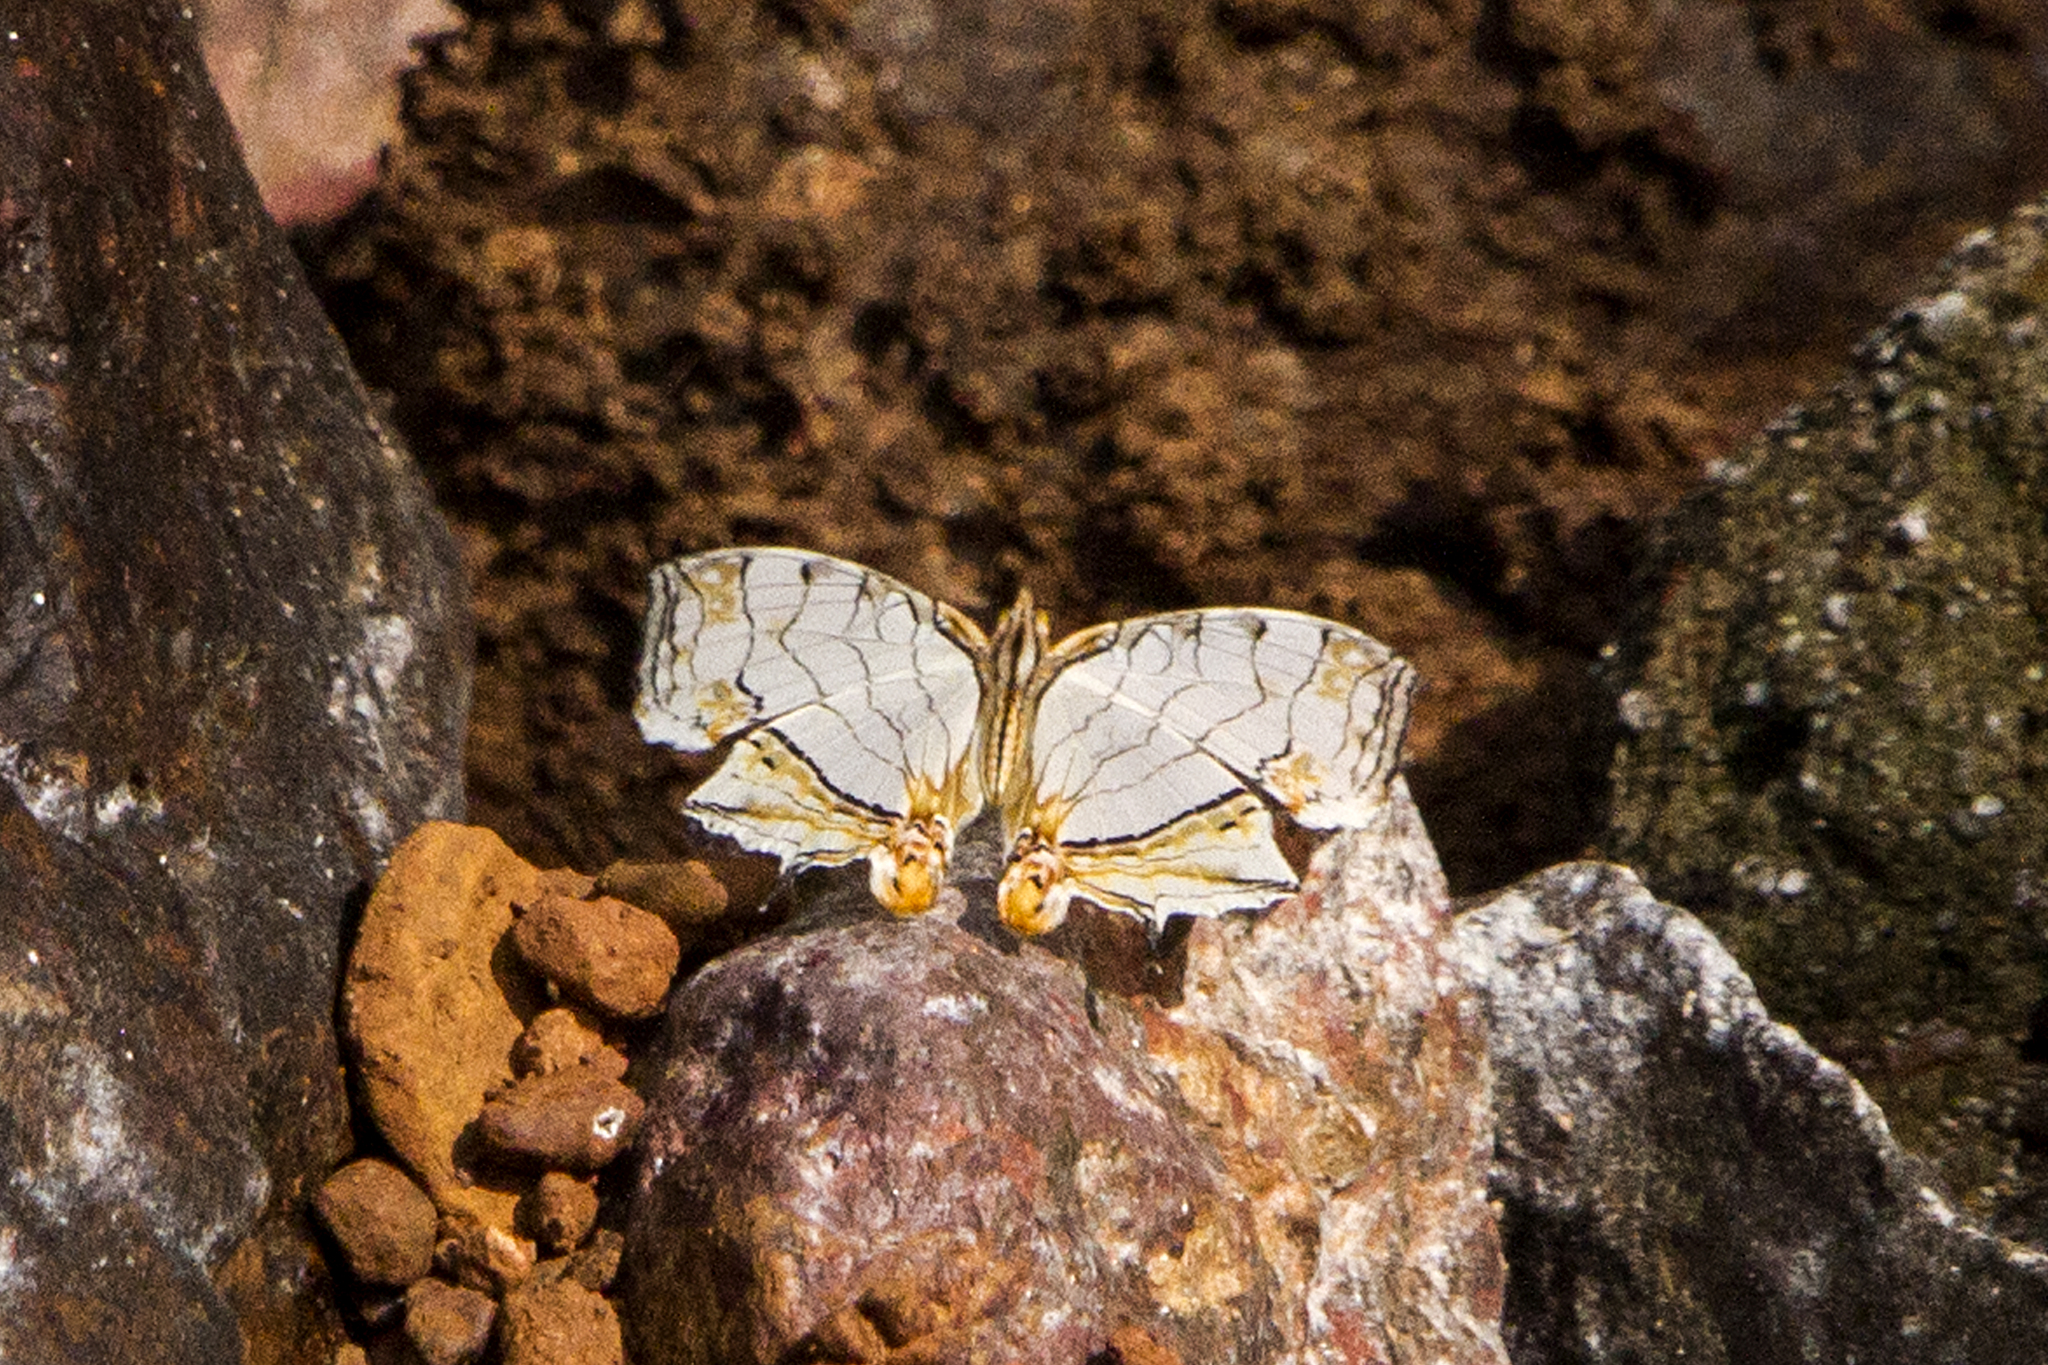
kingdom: Animalia
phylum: Arthropoda
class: Insecta
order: Lepidoptera
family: Nymphalidae
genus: Cyrestis
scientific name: Cyrestis thyodamas
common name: Common mapwing
